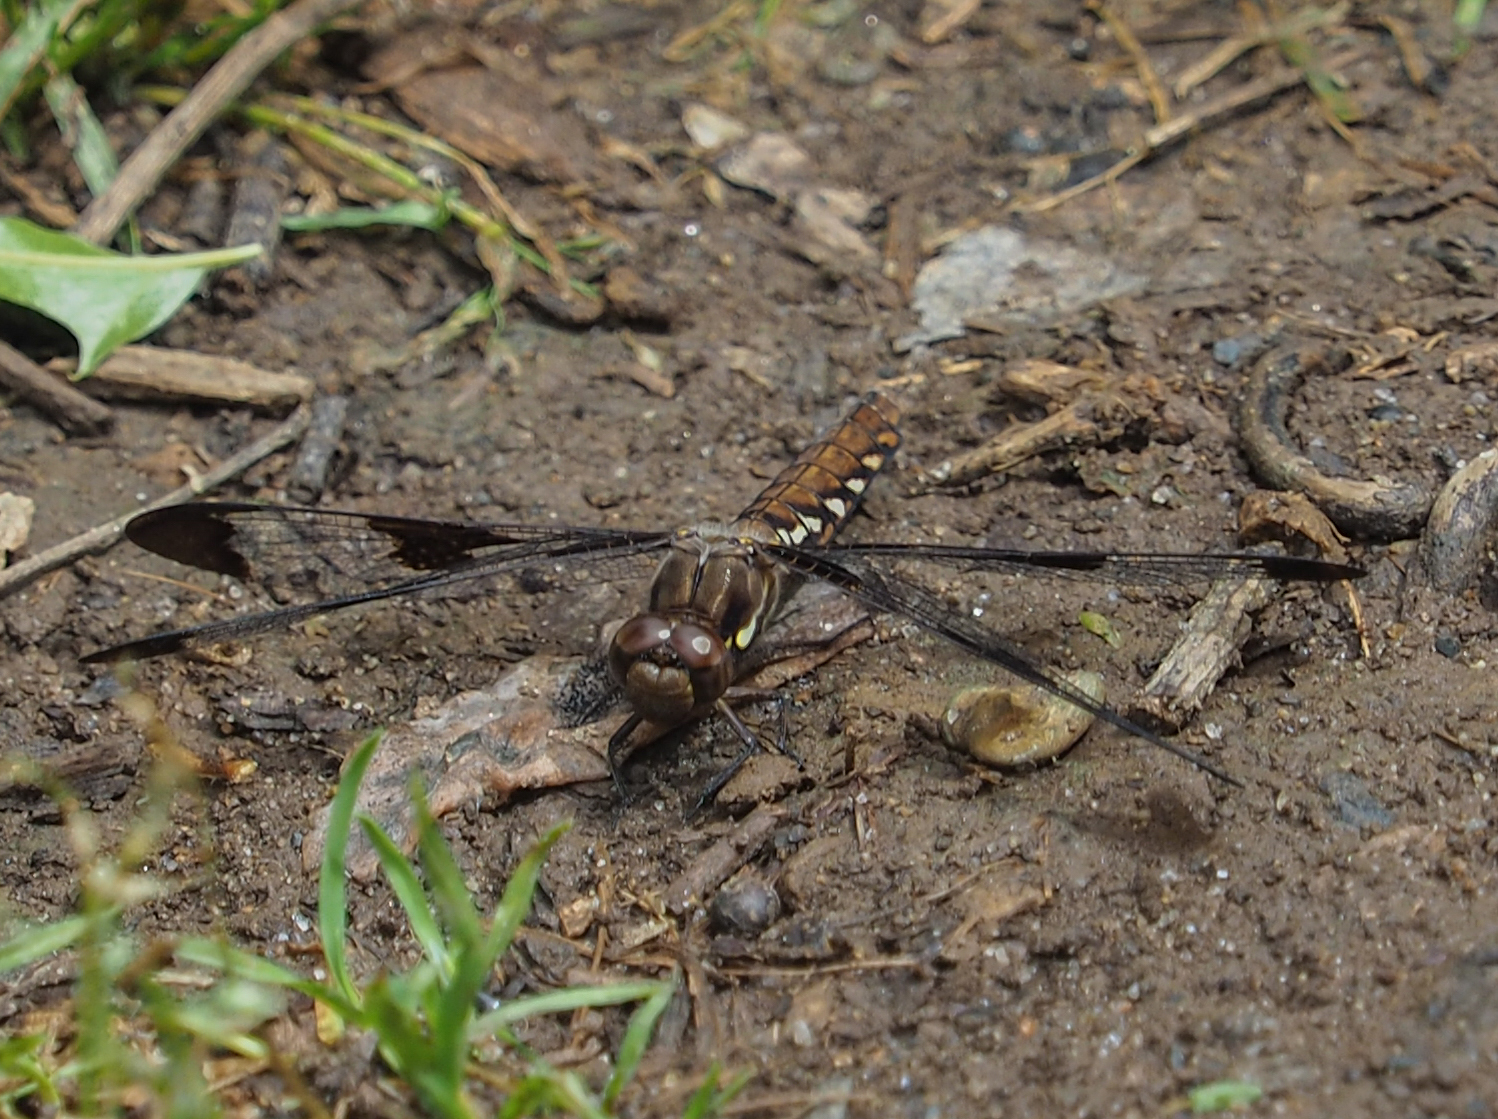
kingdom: Animalia
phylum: Arthropoda
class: Insecta
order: Odonata
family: Libellulidae
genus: Plathemis
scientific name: Plathemis lydia
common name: Common whitetail
